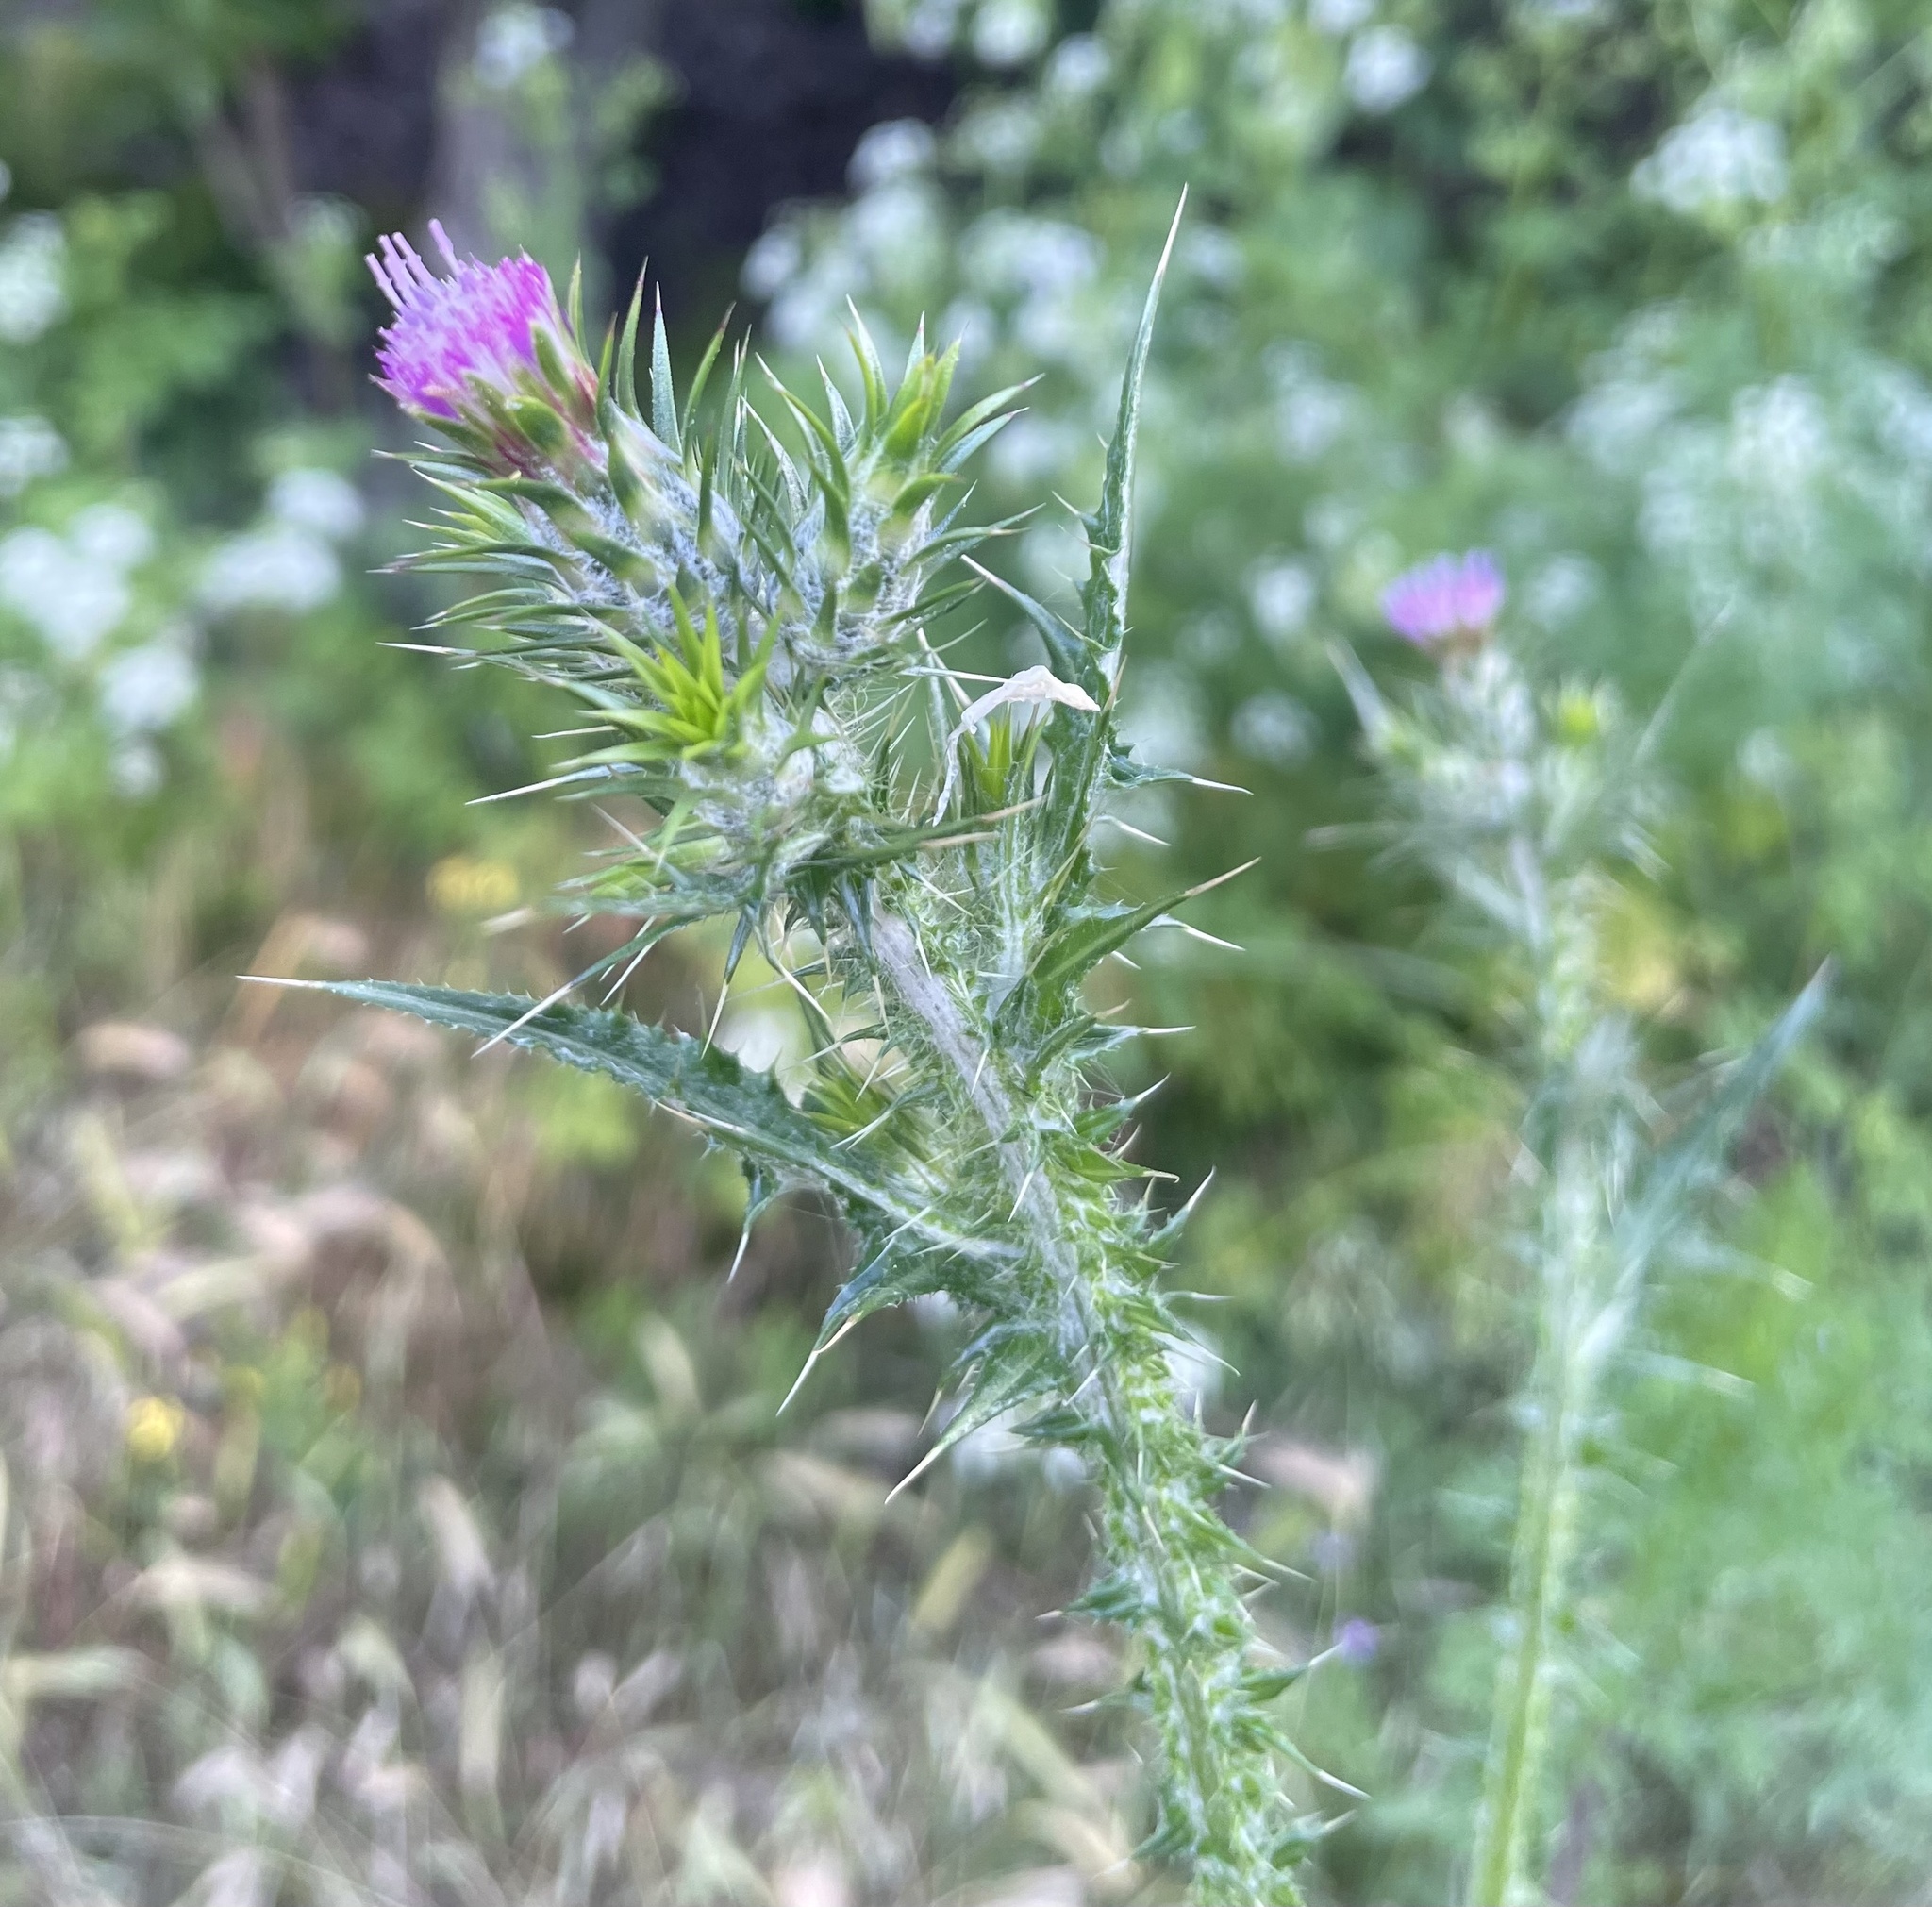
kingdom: Plantae
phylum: Tracheophyta
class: Magnoliopsida
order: Asterales
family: Asteraceae
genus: Carduus
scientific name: Carduus pycnocephalus
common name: Plymouth thistle
